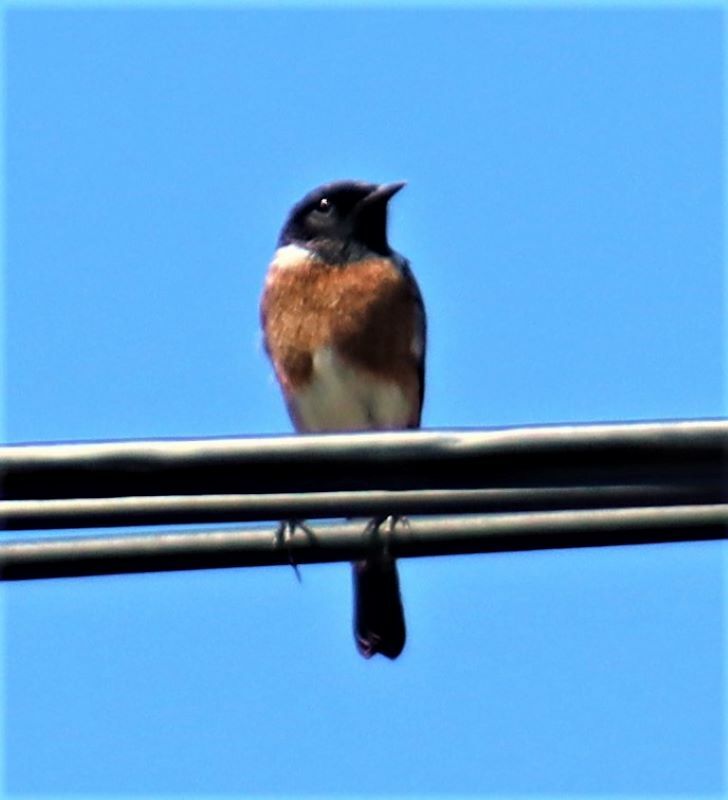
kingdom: Animalia
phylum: Chordata
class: Aves
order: Passeriformes
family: Muscicapidae
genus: Saxicola
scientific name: Saxicola torquatus
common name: African stonechat
